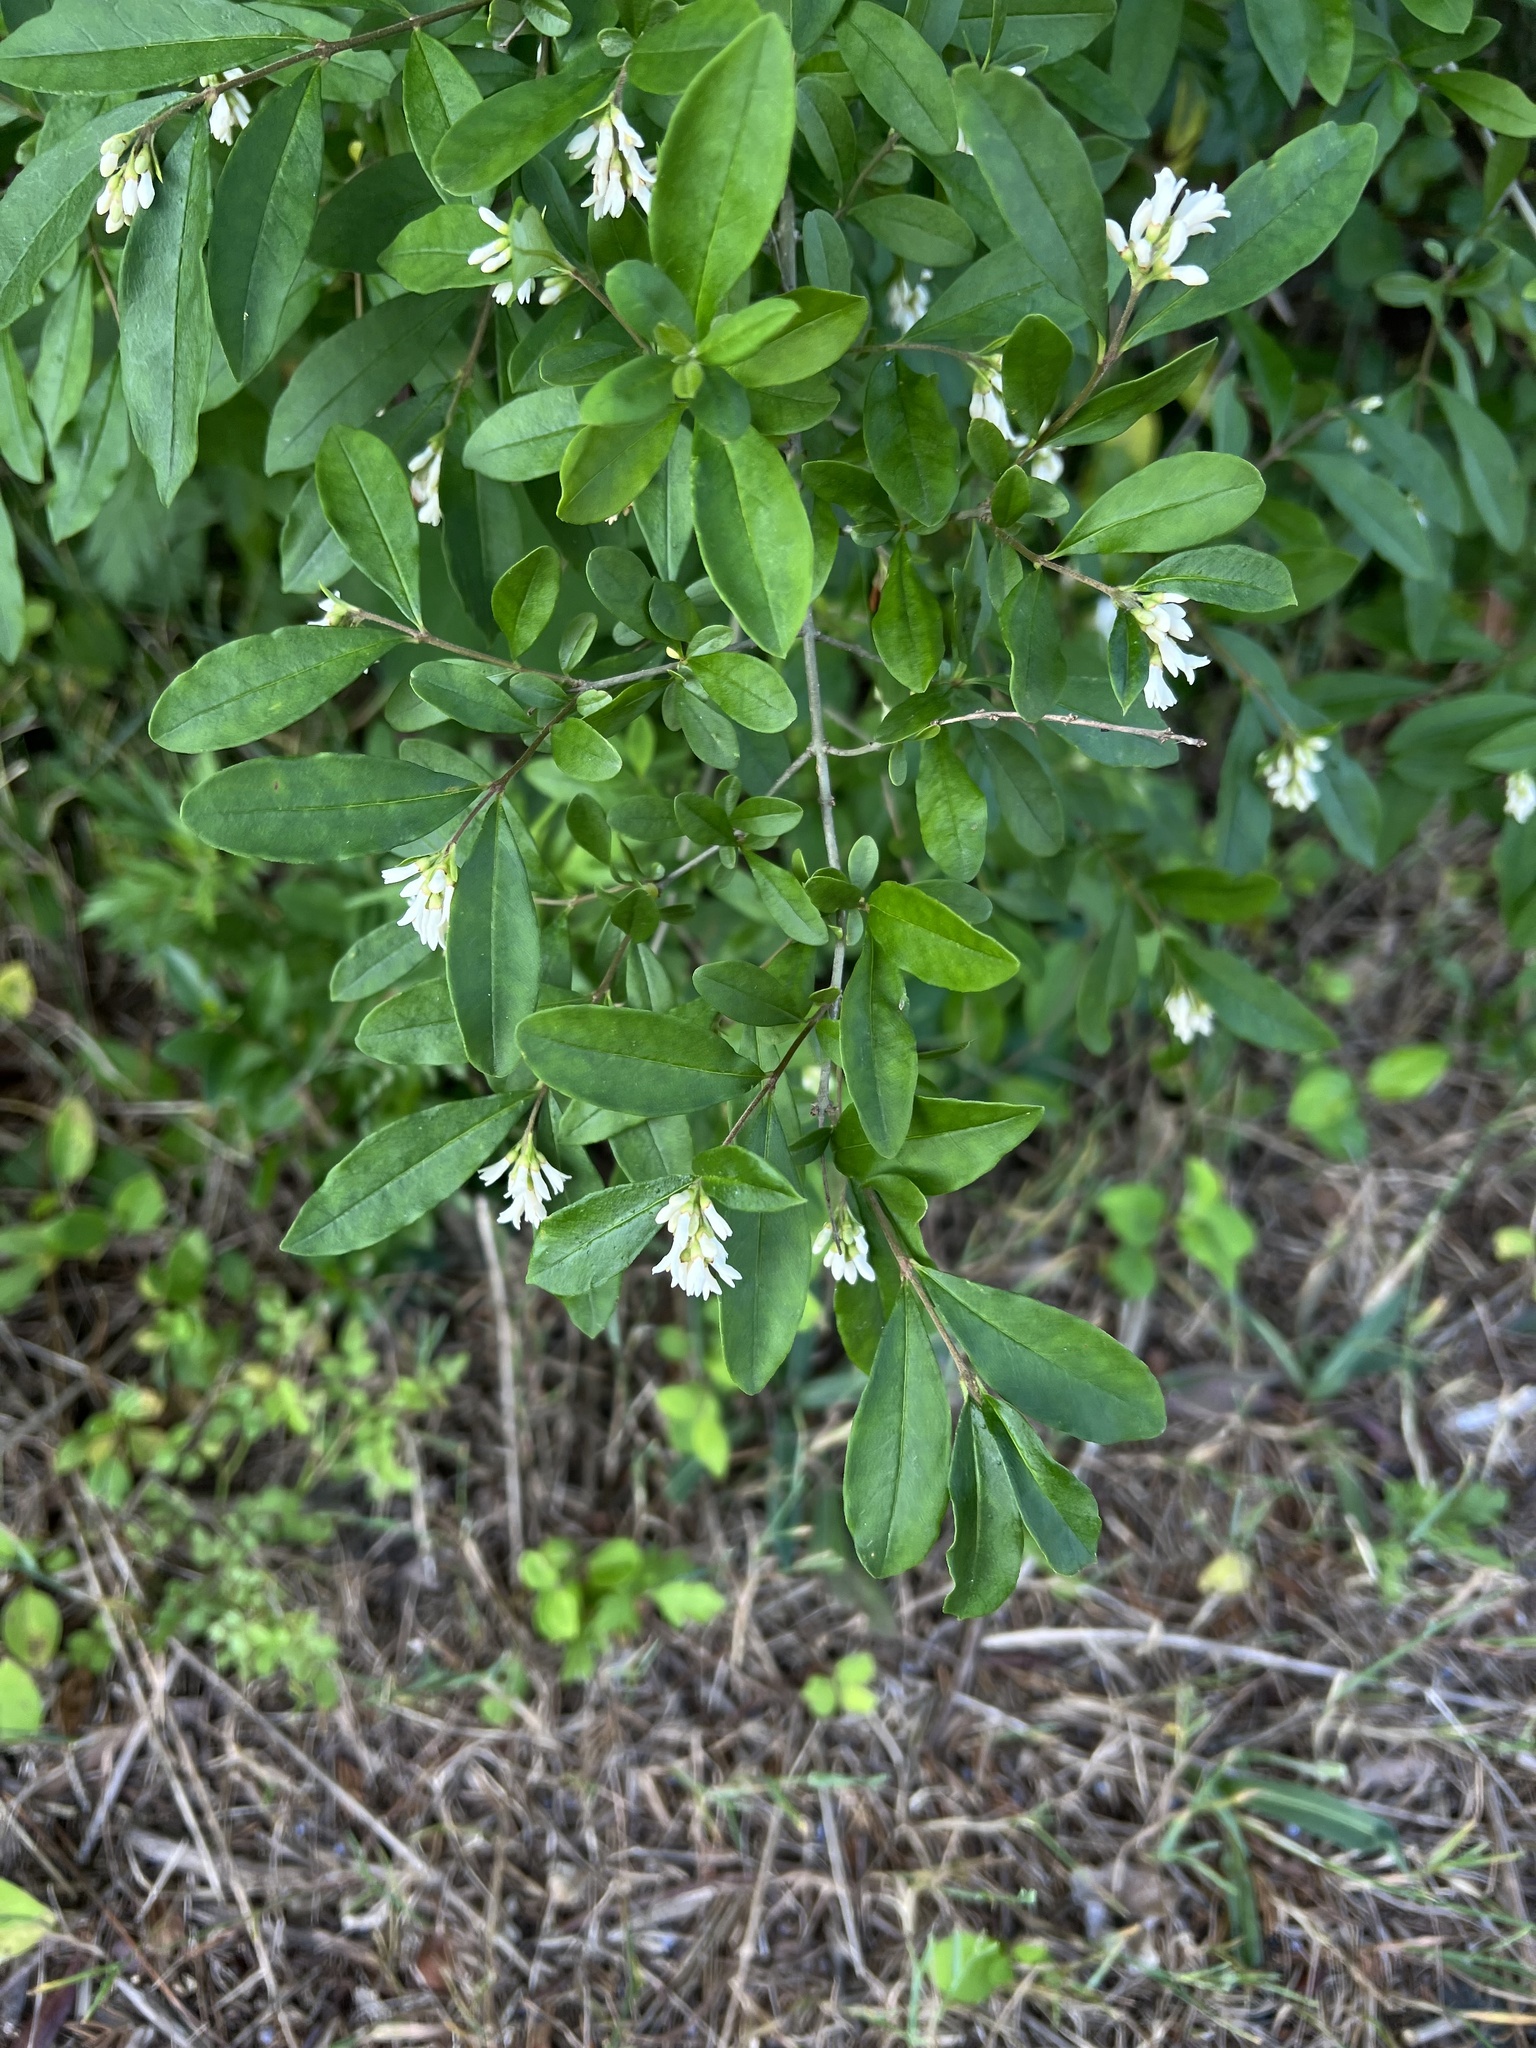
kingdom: Plantae
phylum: Tracheophyta
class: Magnoliopsida
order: Lamiales
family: Oleaceae
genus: Ligustrum
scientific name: Ligustrum obtusifolium
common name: Border privet
